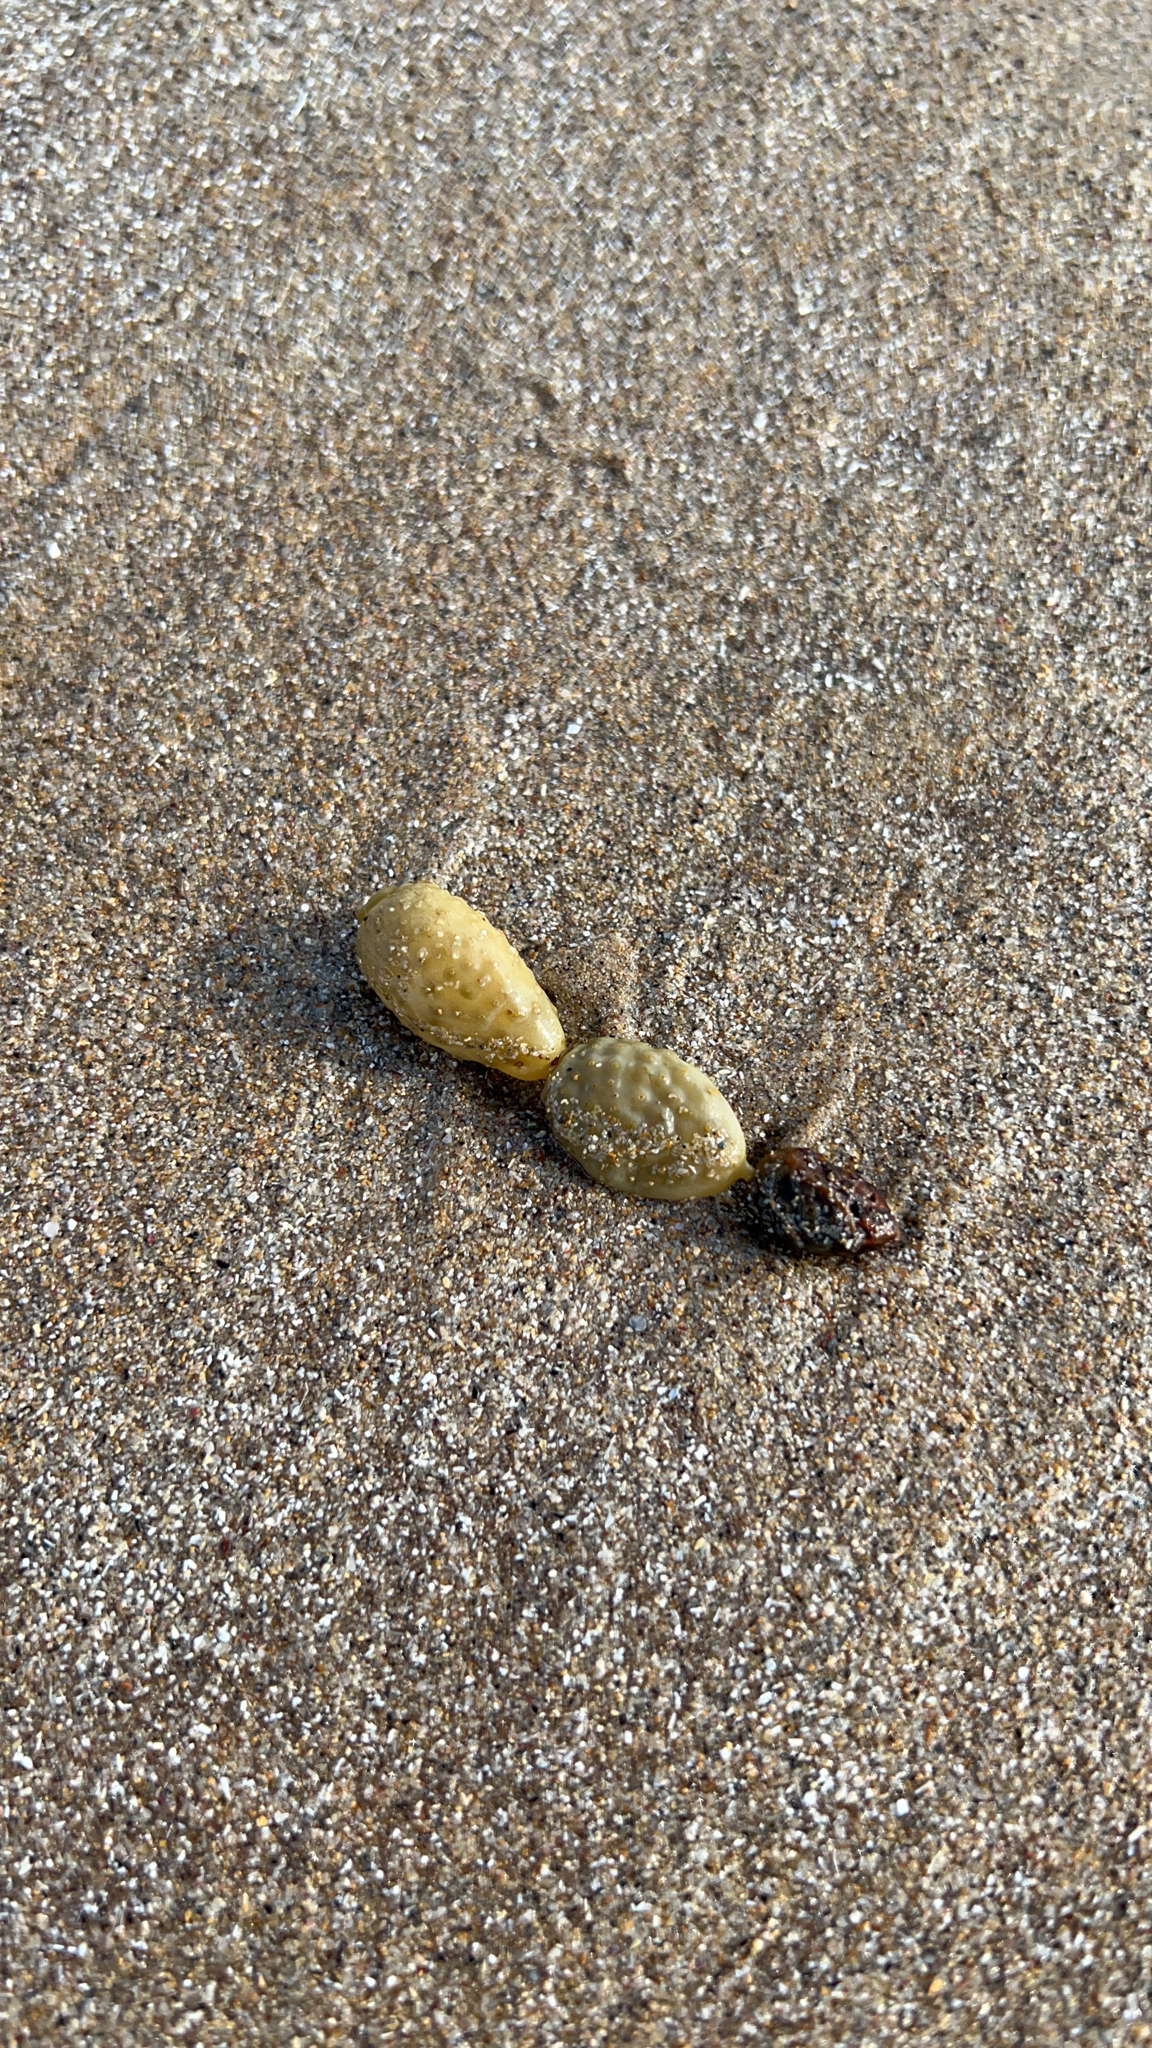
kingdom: Chromista
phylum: Ochrophyta
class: Phaeophyceae
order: Fucales
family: Hormosiraceae
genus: Hormosira
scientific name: Hormosira banksii
